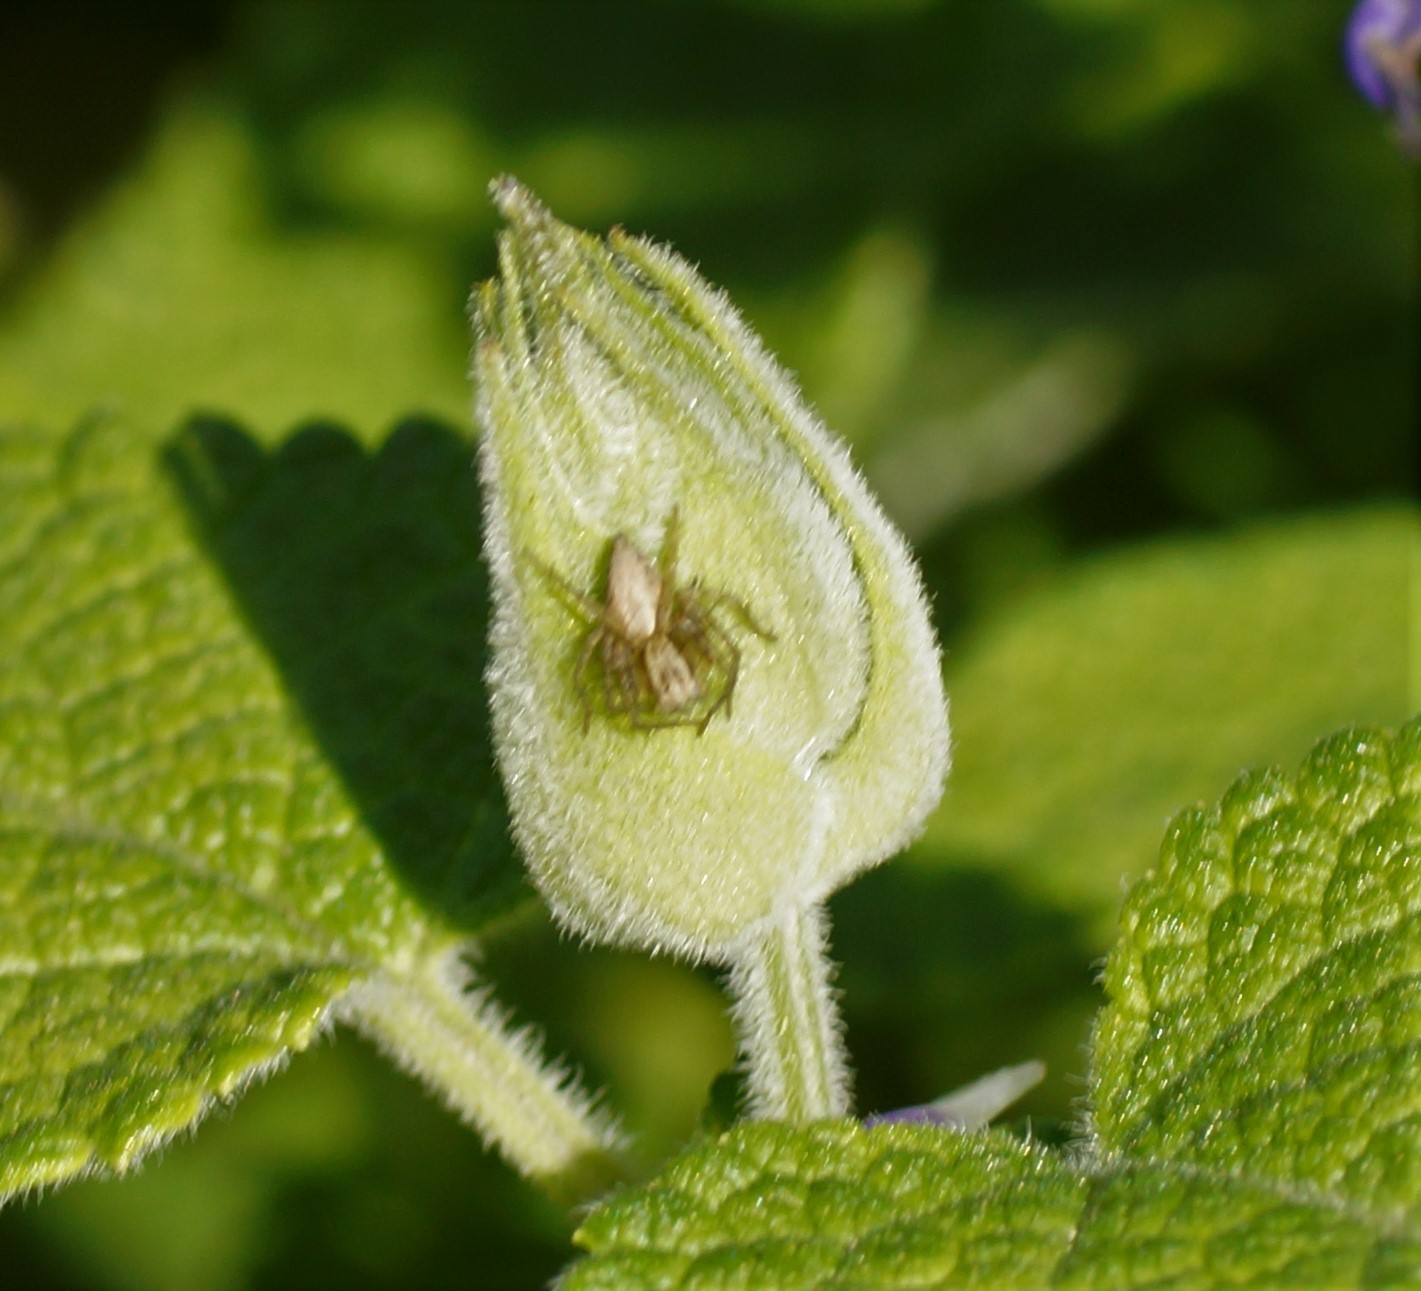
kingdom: Animalia
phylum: Arthropoda
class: Arachnida
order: Araneae
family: Oxyopidae
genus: Oxyopes
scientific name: Oxyopes gracilipes
